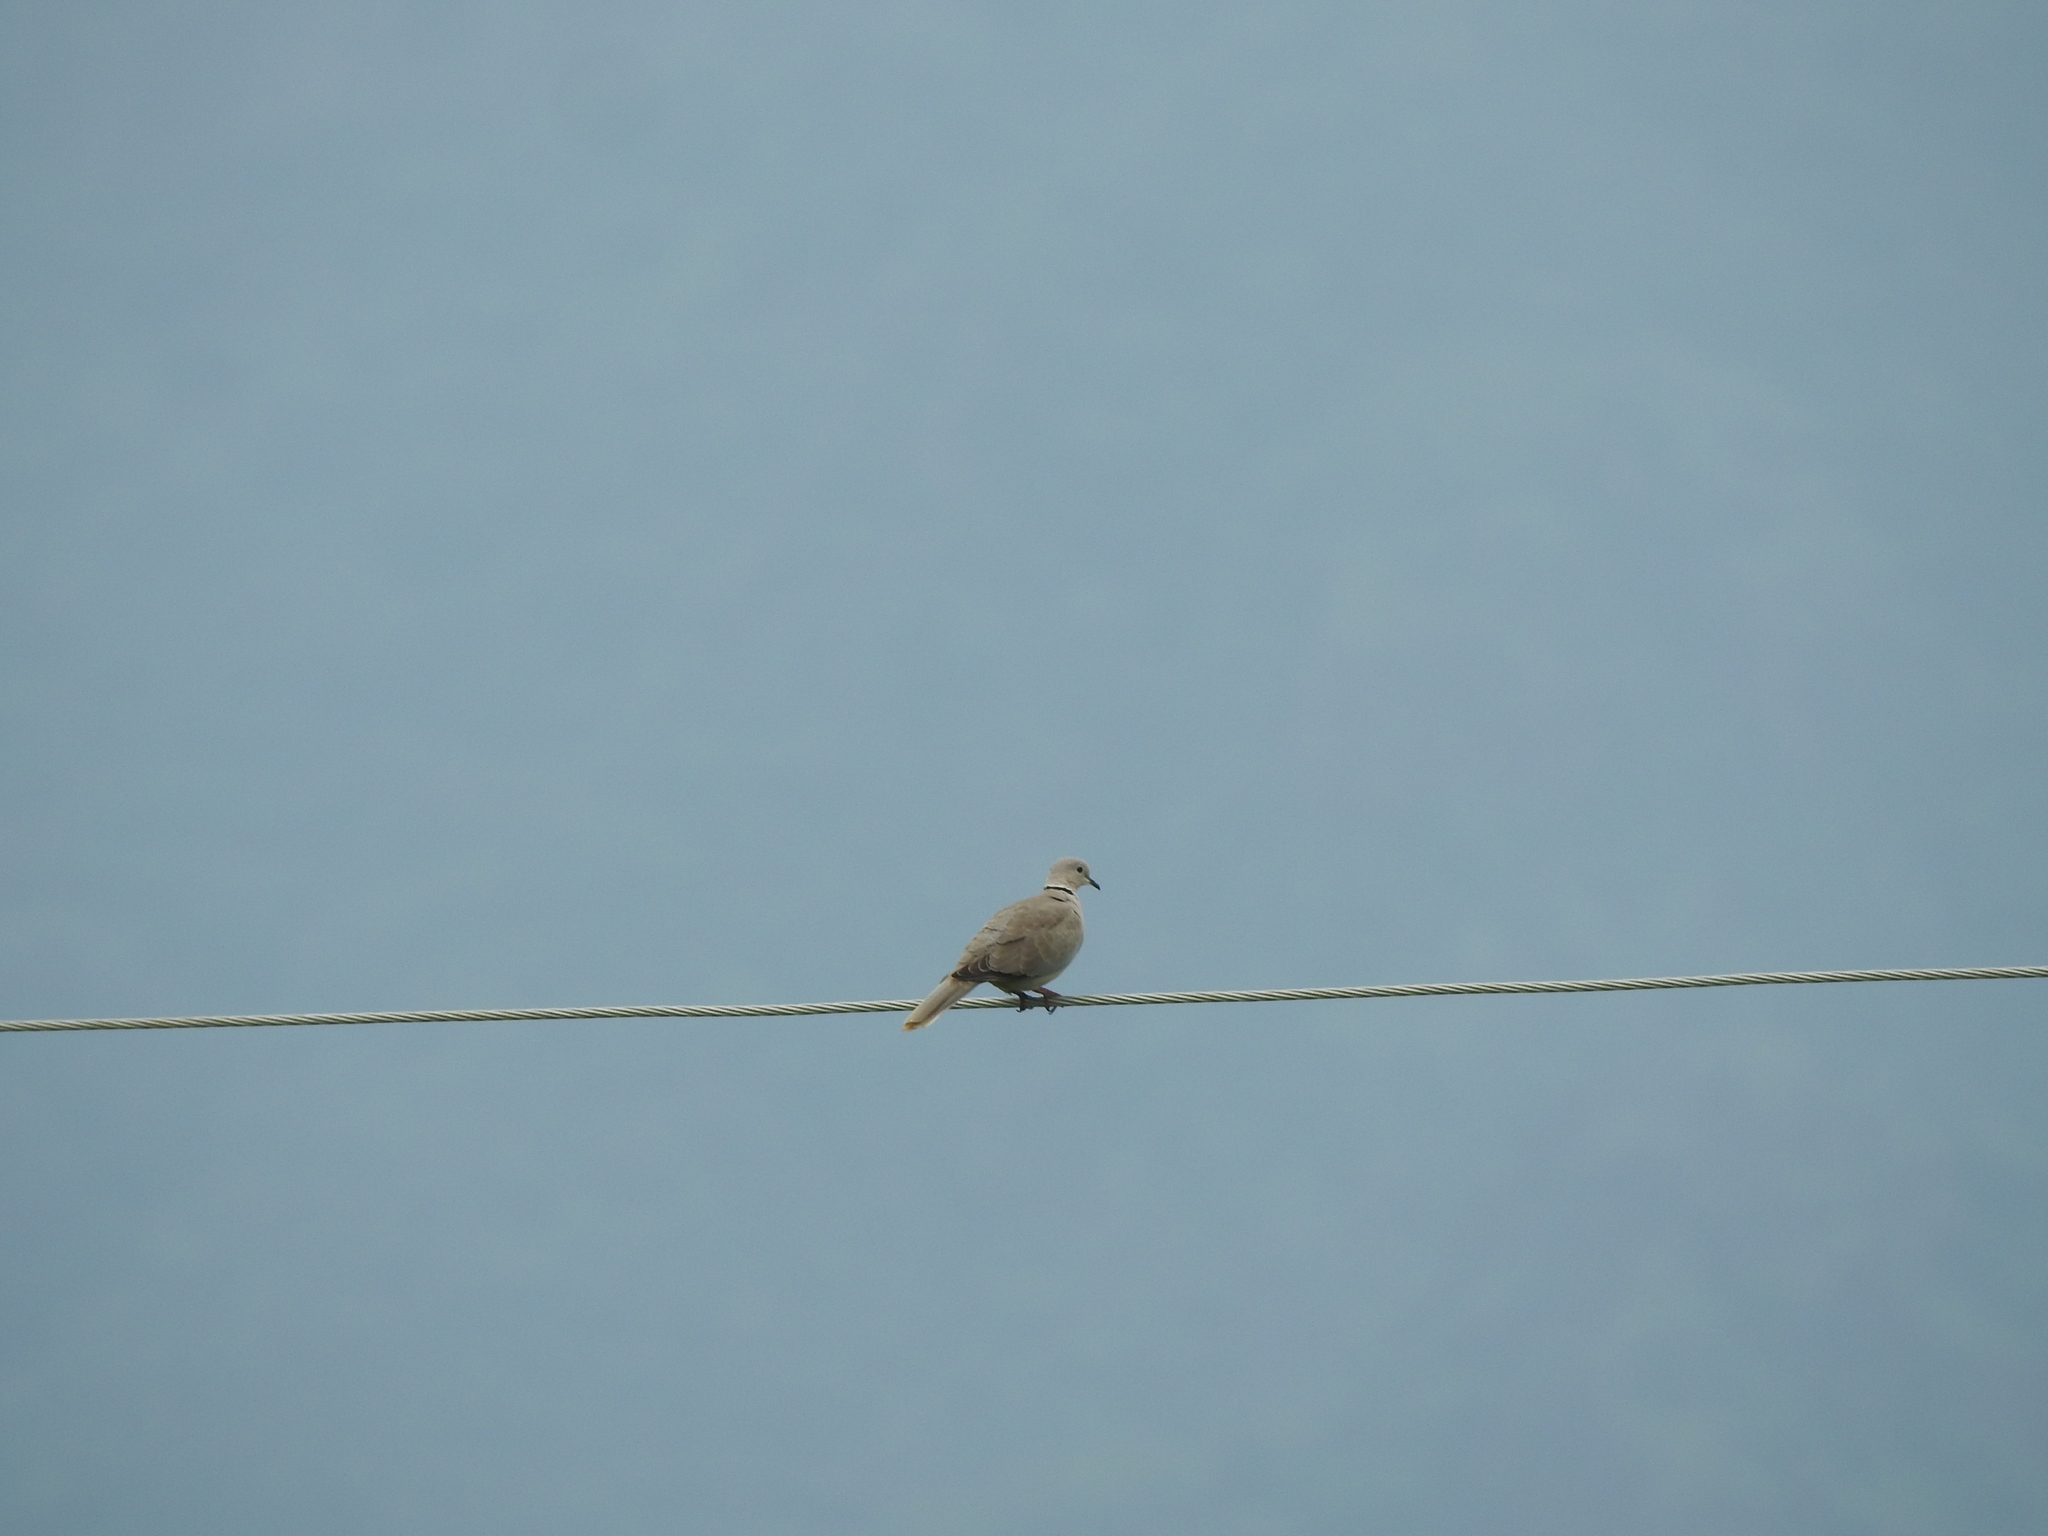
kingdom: Animalia
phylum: Chordata
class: Aves
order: Columbiformes
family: Columbidae
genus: Streptopelia
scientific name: Streptopelia decaocto
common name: Eurasian collared dove
